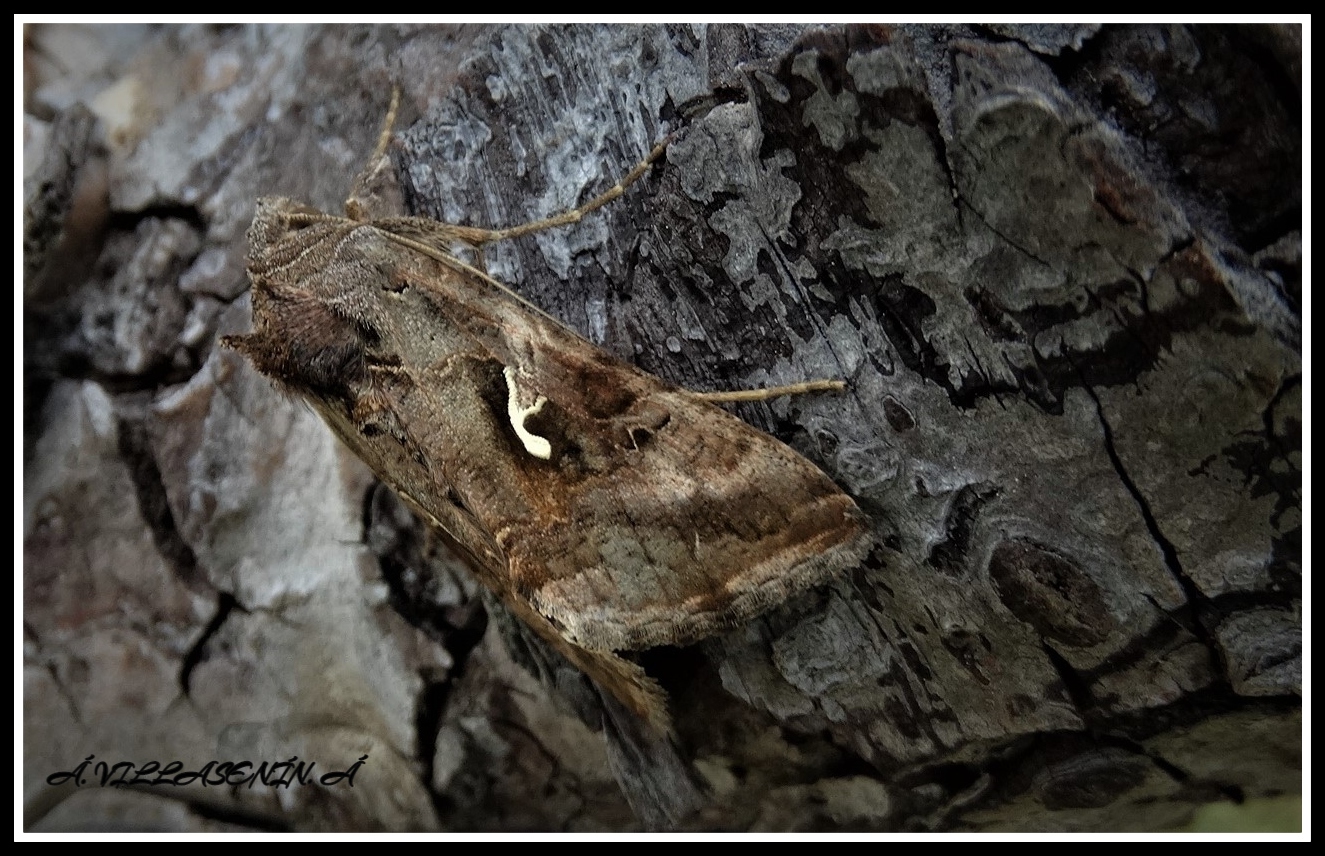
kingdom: Animalia
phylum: Arthropoda
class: Insecta
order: Lepidoptera
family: Noctuidae
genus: Autographa
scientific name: Autographa gamma
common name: Silver y
